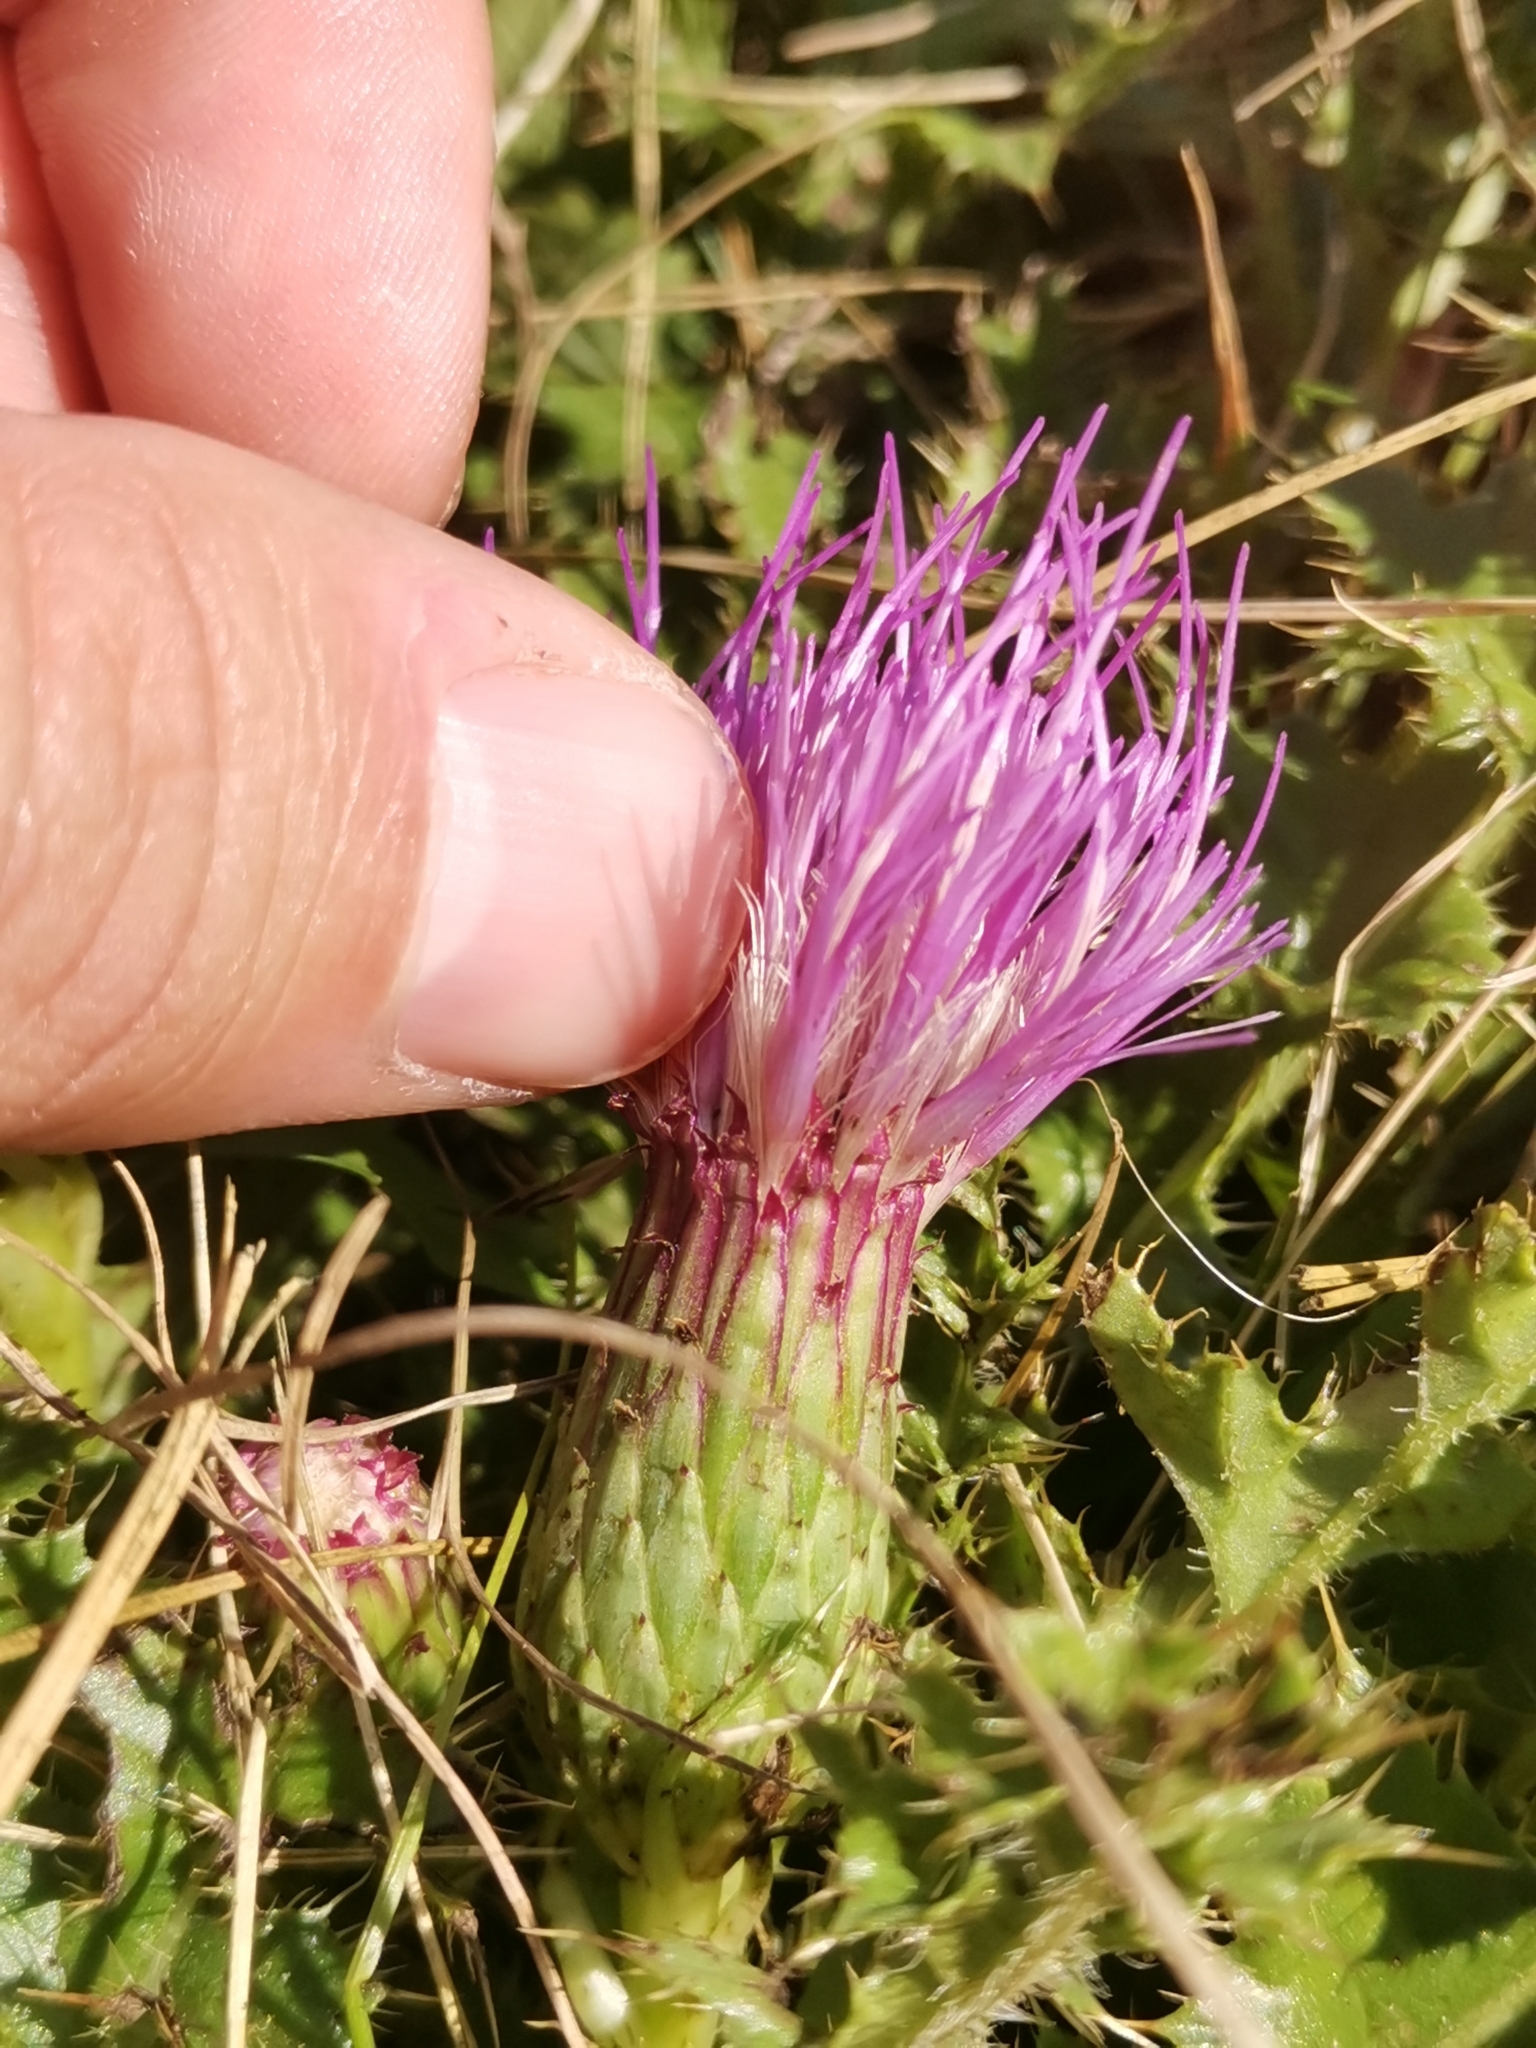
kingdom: Plantae
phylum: Tracheophyta
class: Magnoliopsida
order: Asterales
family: Asteraceae
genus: Cirsium
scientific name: Cirsium acaulon
